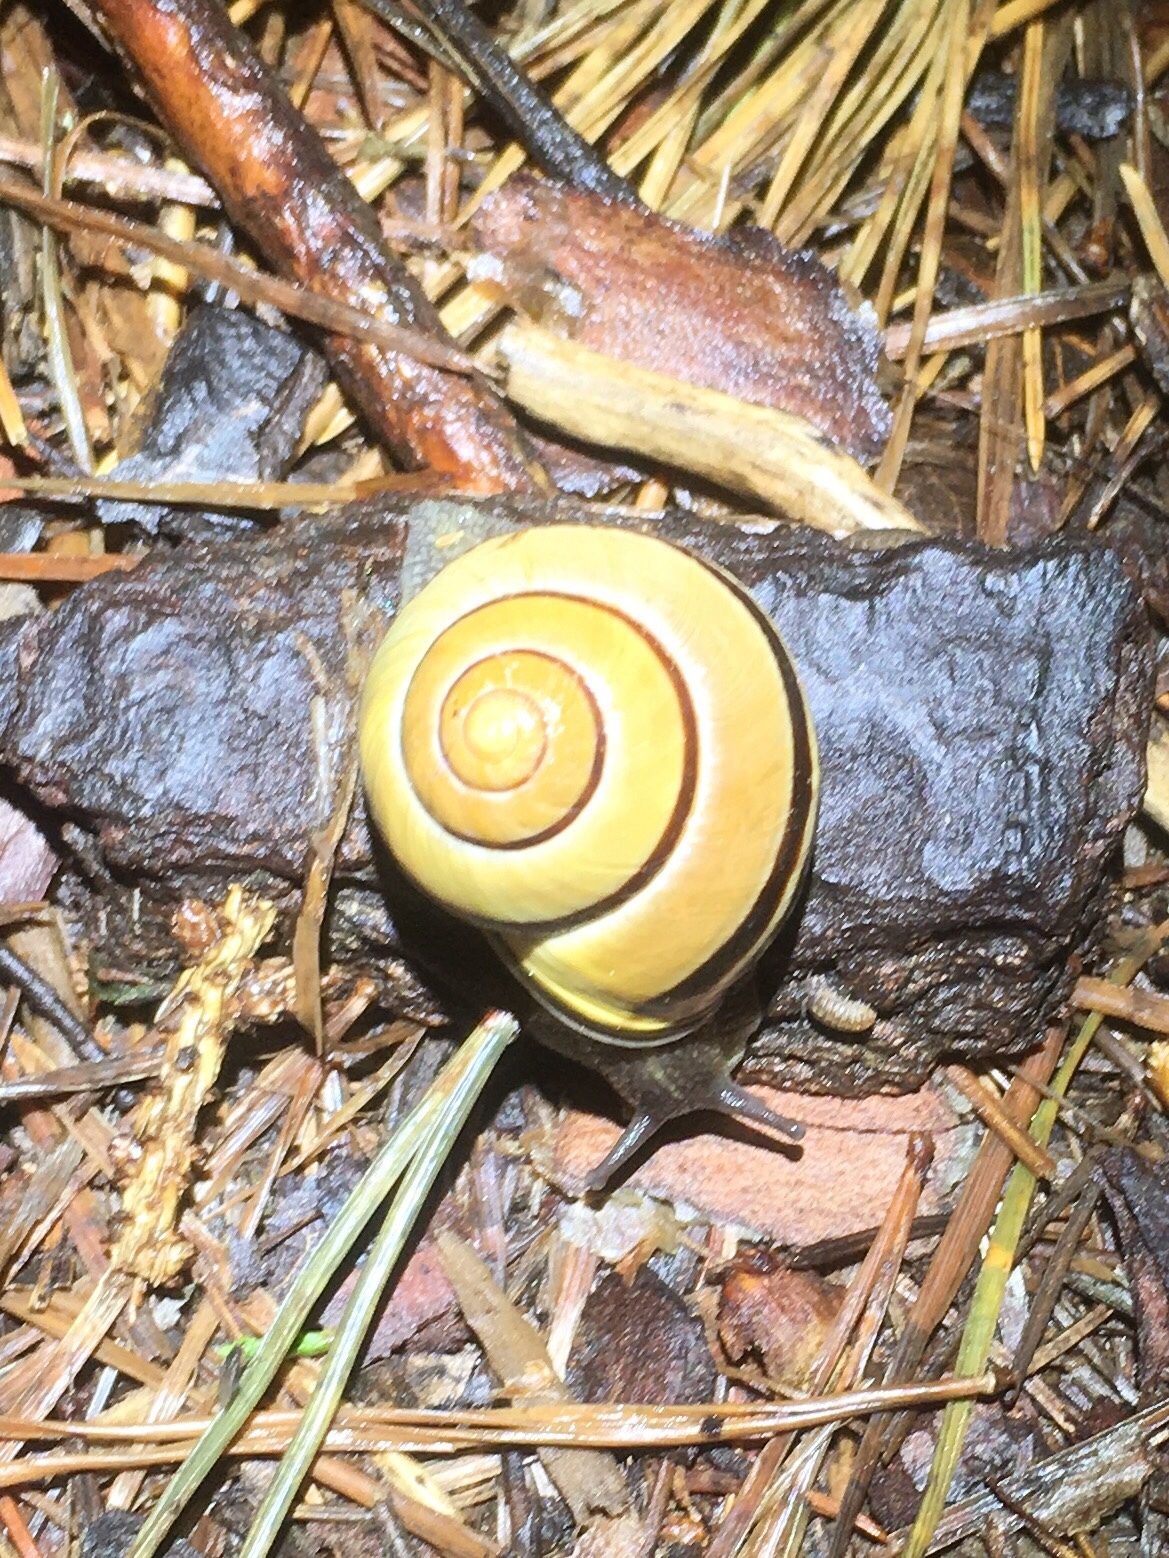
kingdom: Animalia
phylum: Mollusca
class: Gastropoda
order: Stylommatophora
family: Helicidae
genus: Cepaea
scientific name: Cepaea nemoralis
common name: Grovesnail
